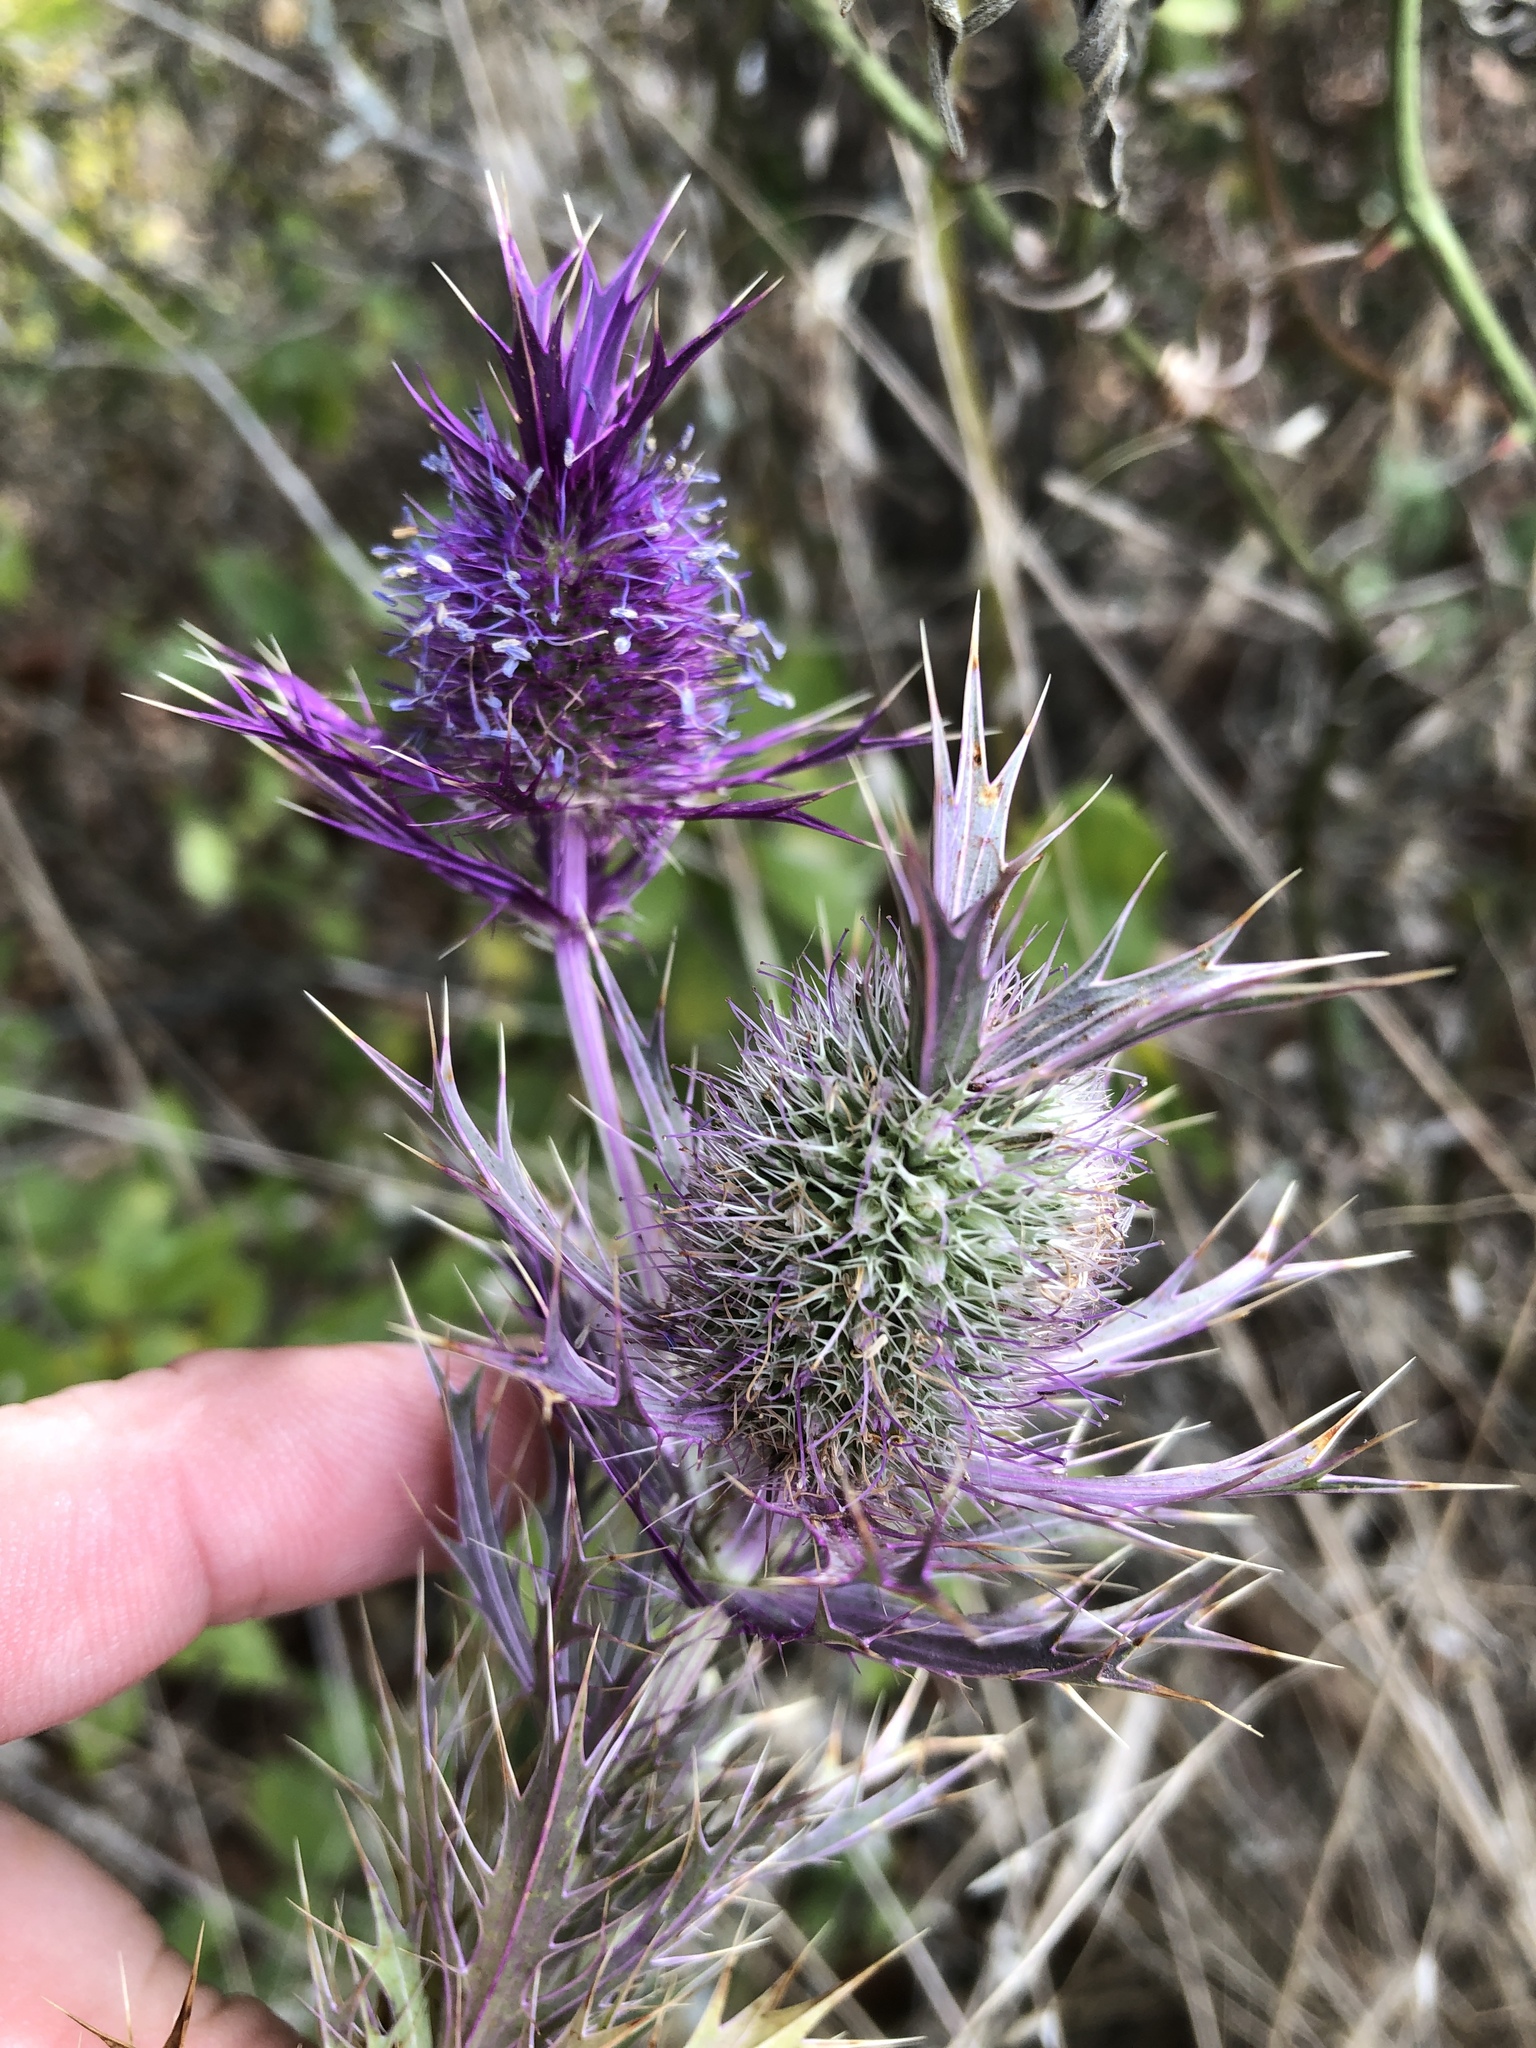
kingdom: Plantae
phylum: Tracheophyta
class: Magnoliopsida
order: Apiales
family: Apiaceae
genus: Eryngium
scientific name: Eryngium leavenworthii
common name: Leavenworth's eryngo
